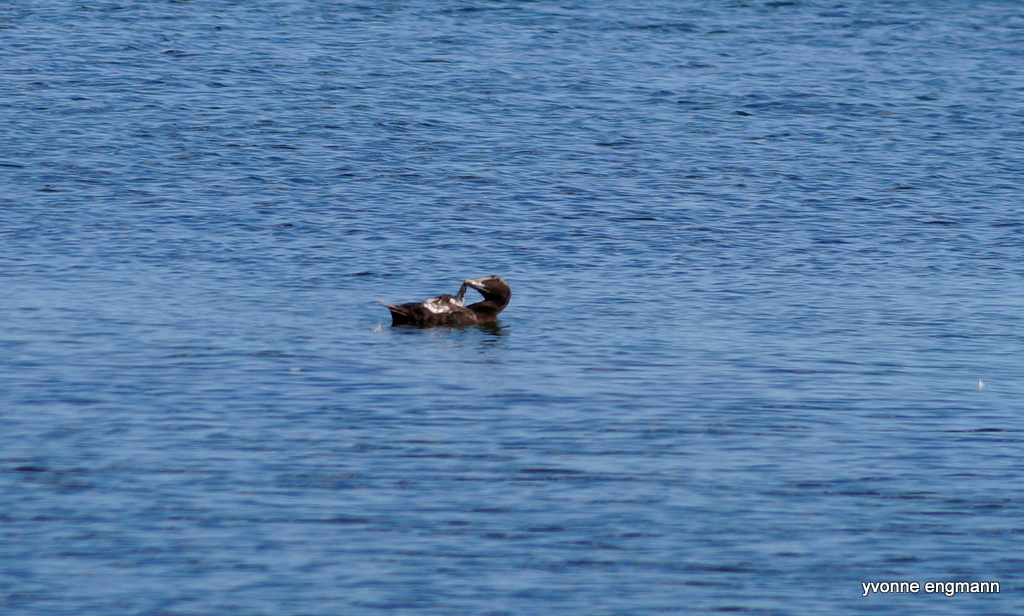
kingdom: Animalia
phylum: Chordata
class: Aves
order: Anseriformes
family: Anatidae
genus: Somateria
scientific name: Somateria mollissima
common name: Common eider
